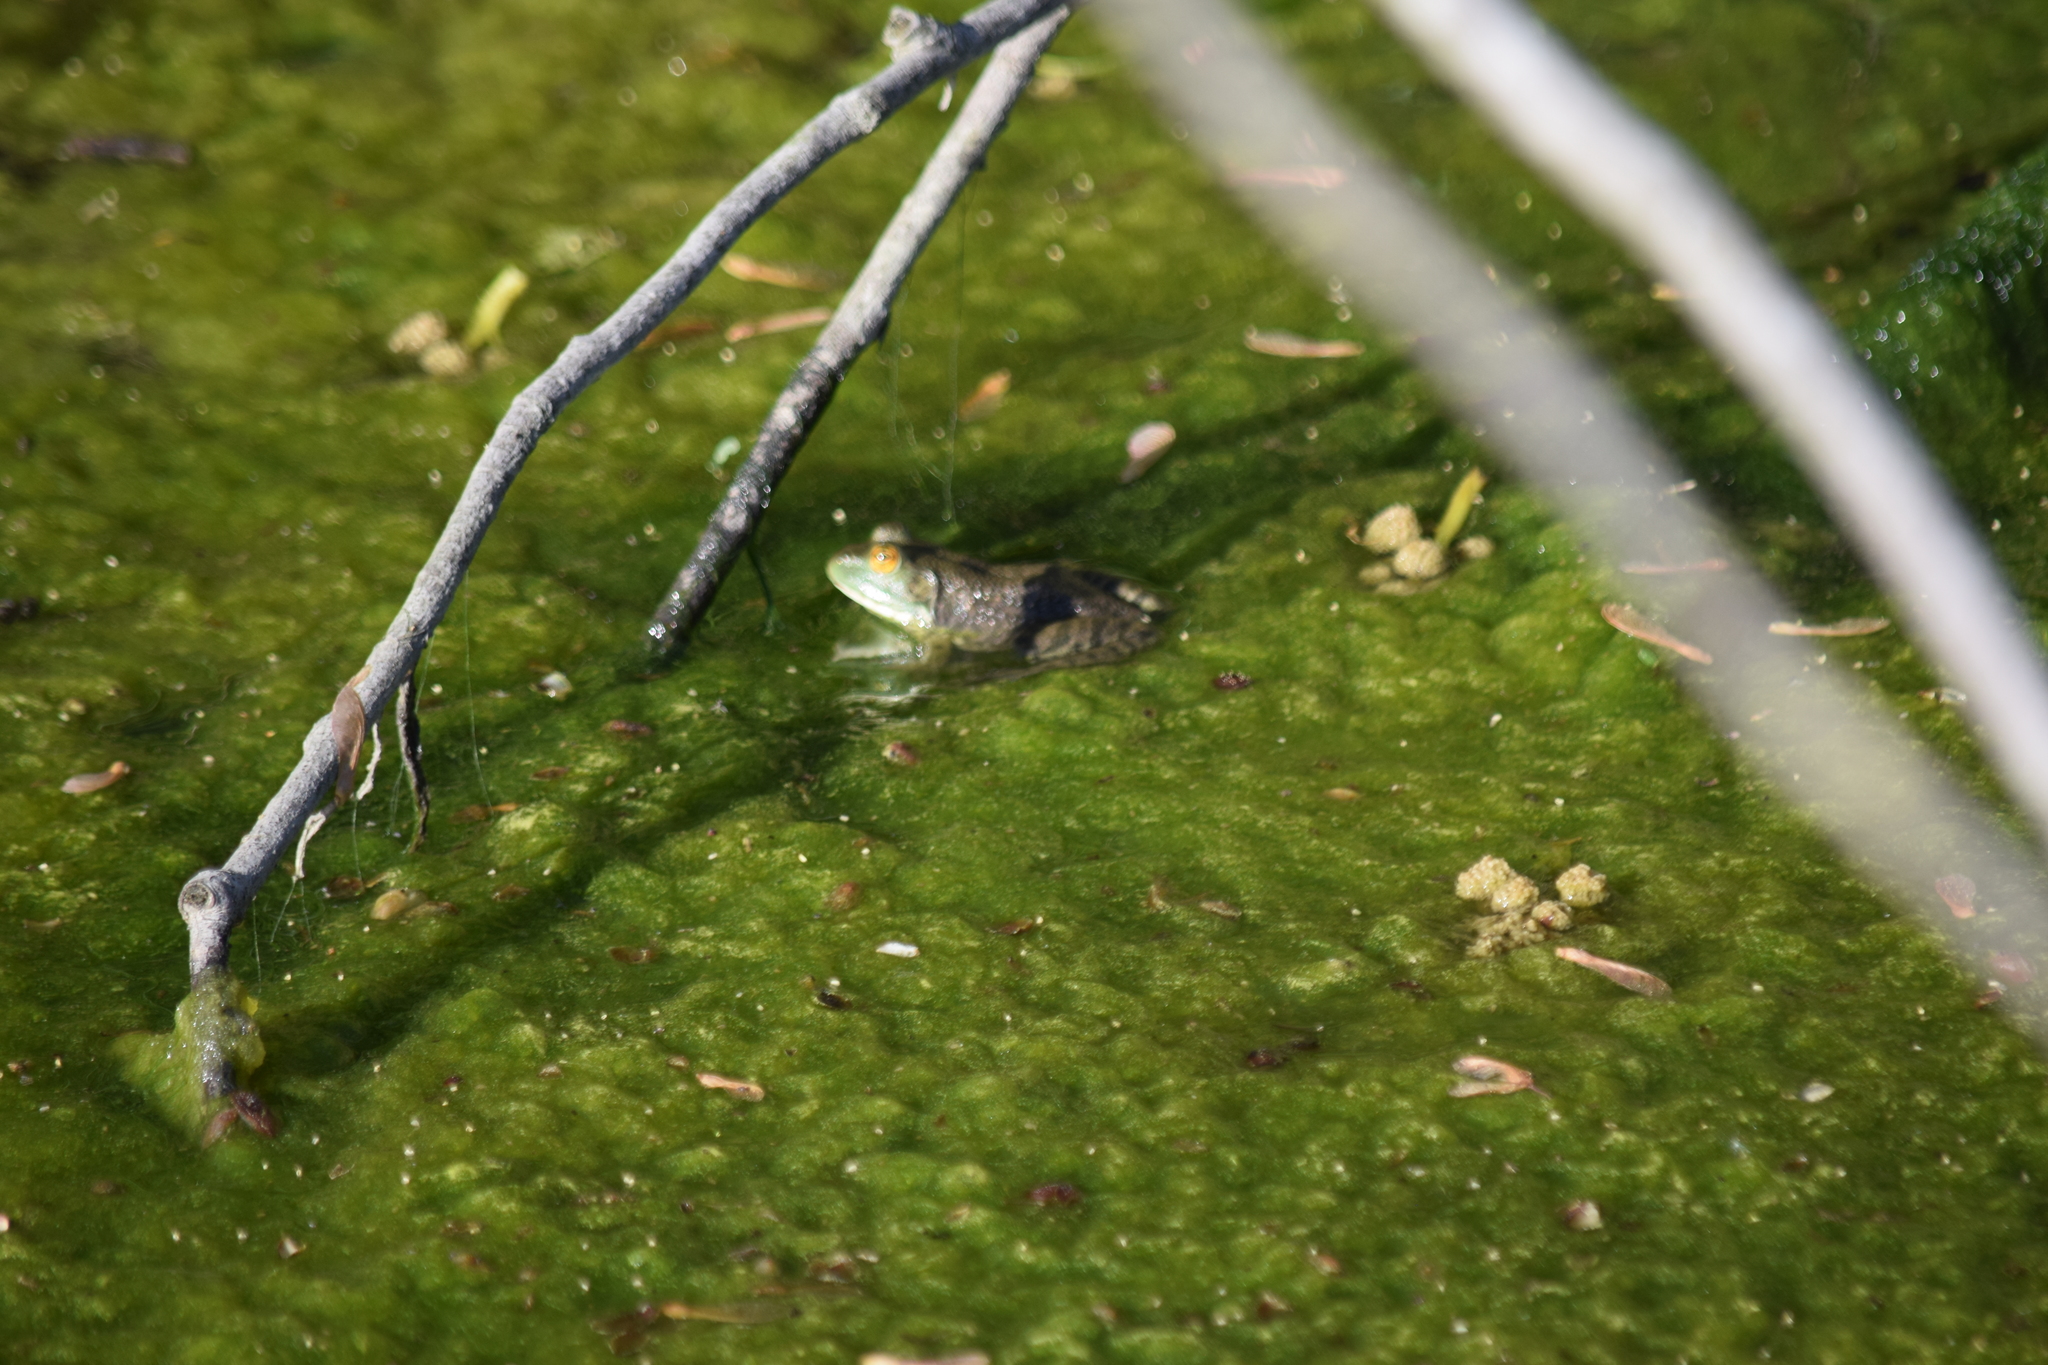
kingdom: Animalia
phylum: Chordata
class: Amphibia
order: Anura
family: Ranidae
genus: Lithobates
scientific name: Lithobates catesbeianus
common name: American bullfrog
